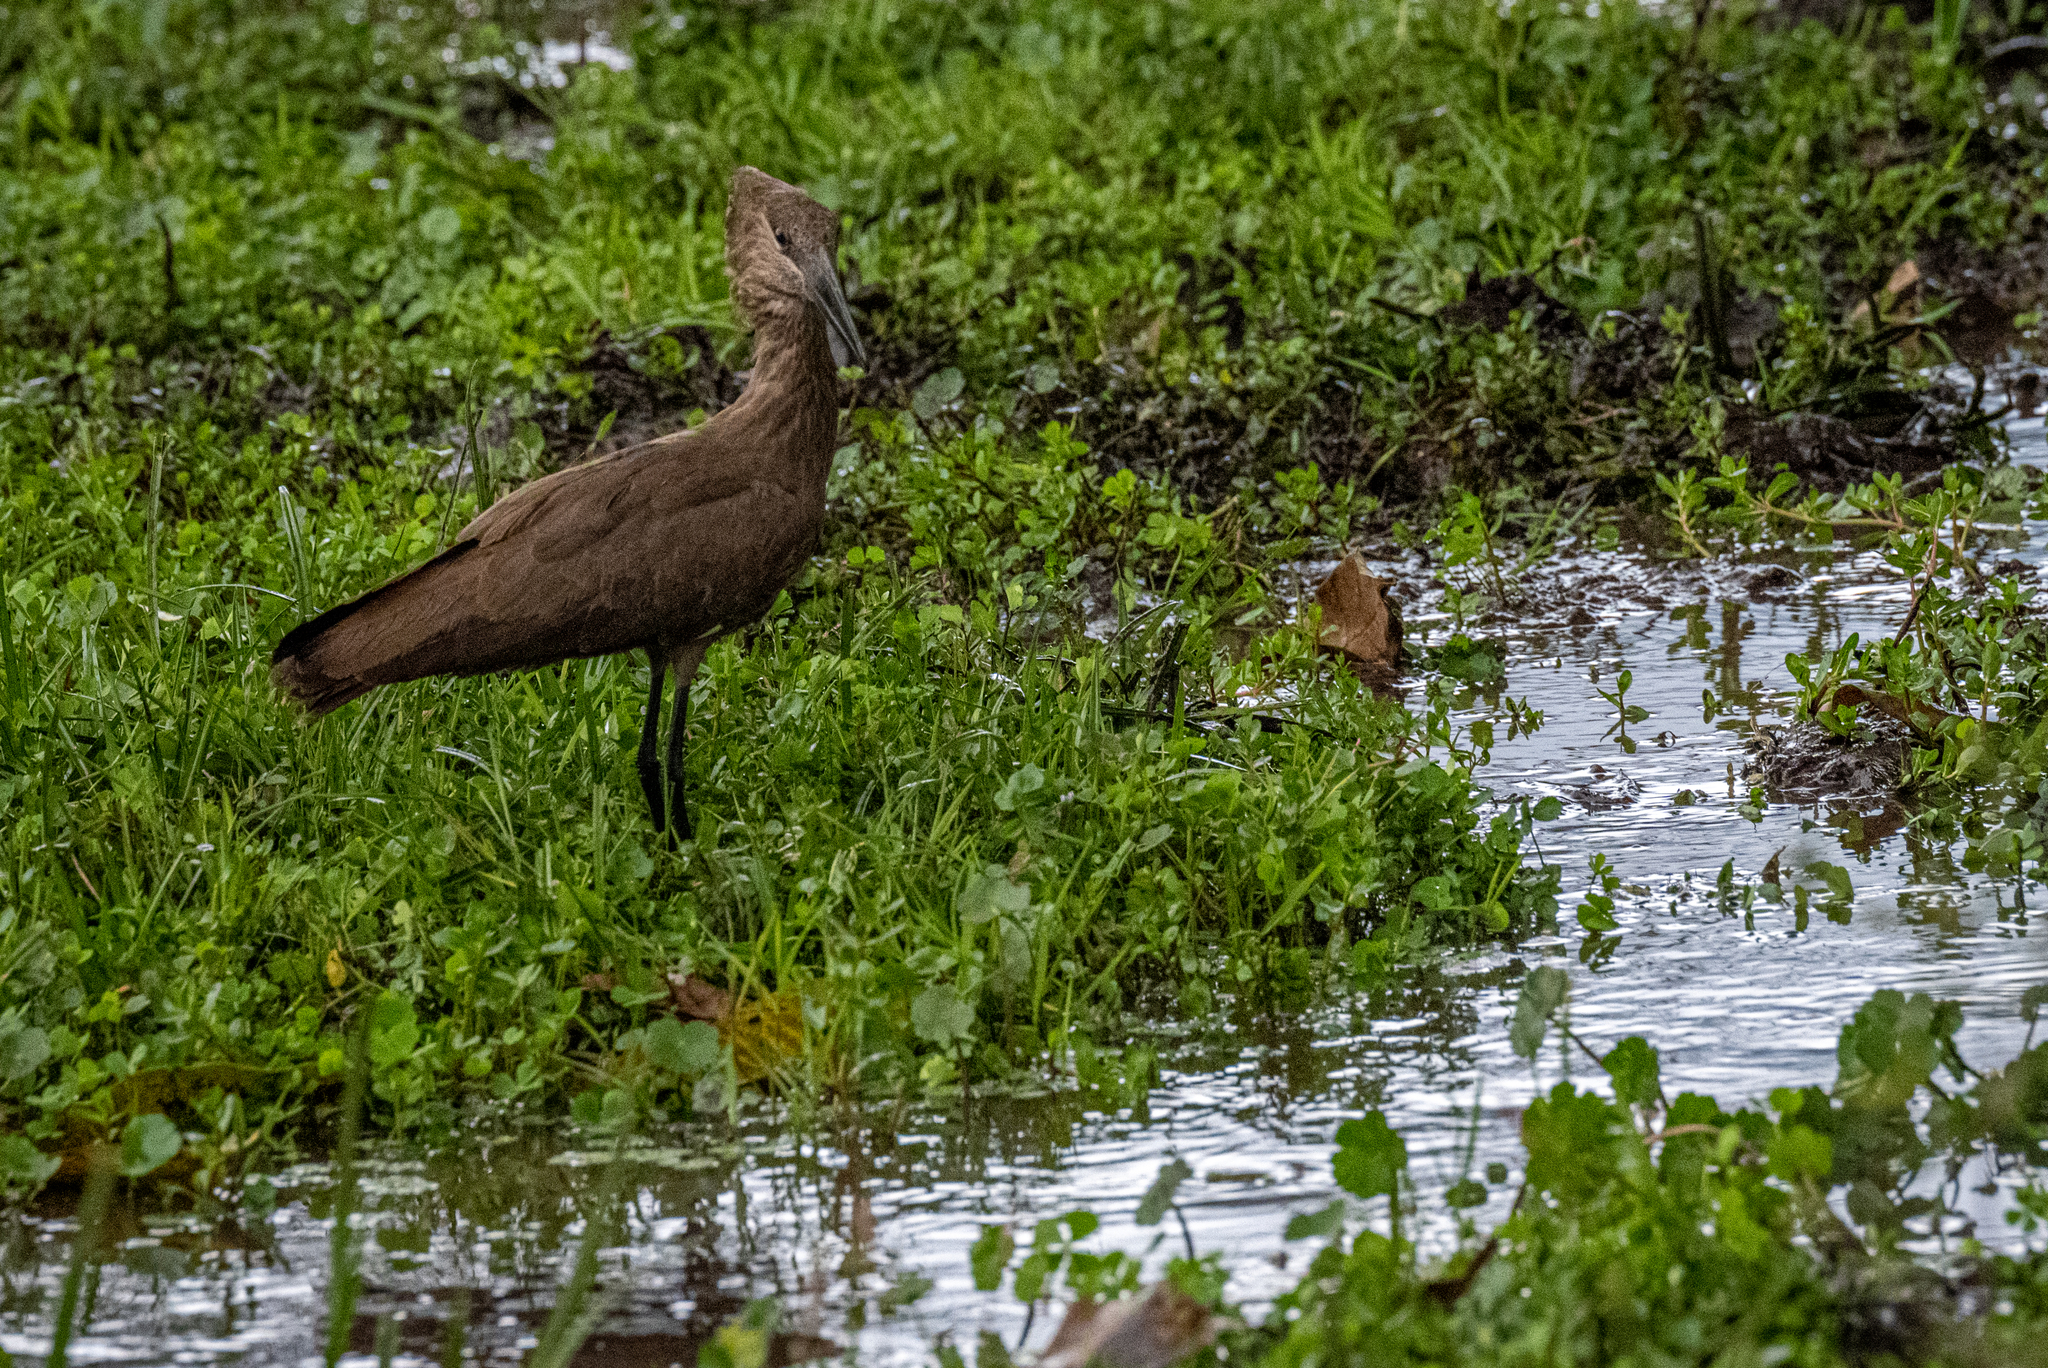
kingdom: Animalia
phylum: Chordata
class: Aves
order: Pelecaniformes
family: Scopidae
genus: Scopus
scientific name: Scopus umbretta
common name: Hamerkop
